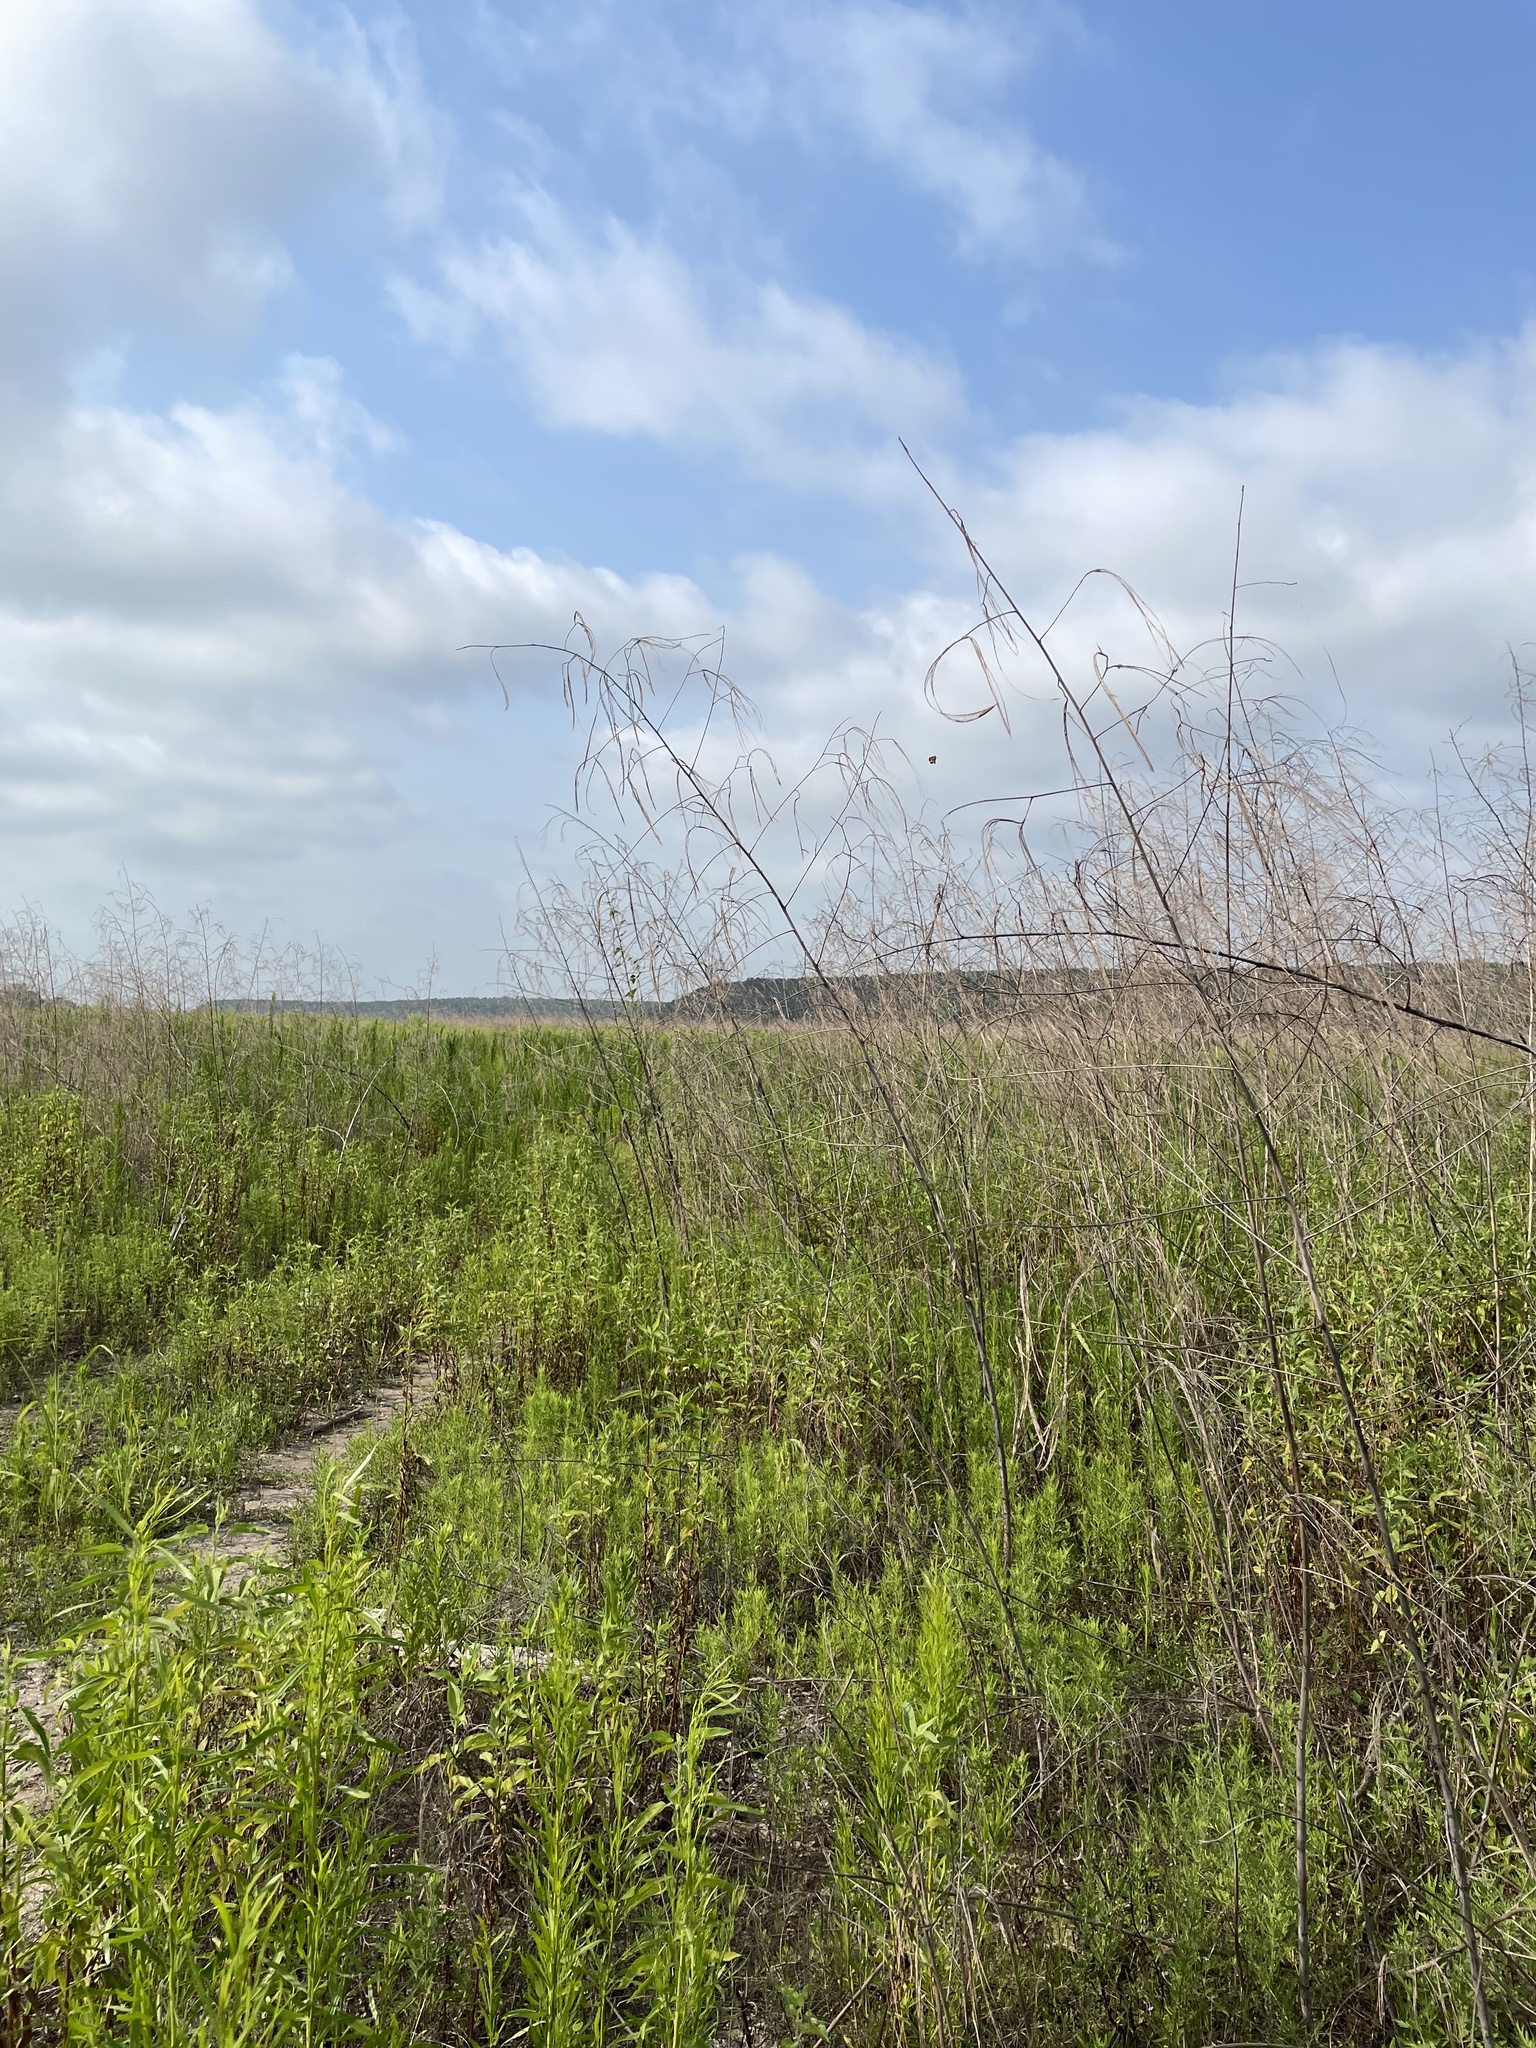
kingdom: Plantae
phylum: Tracheophyta
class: Magnoliopsida
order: Fabales
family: Fabaceae
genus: Sesbania
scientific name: Sesbania herbacea
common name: Bigpod sesbania
